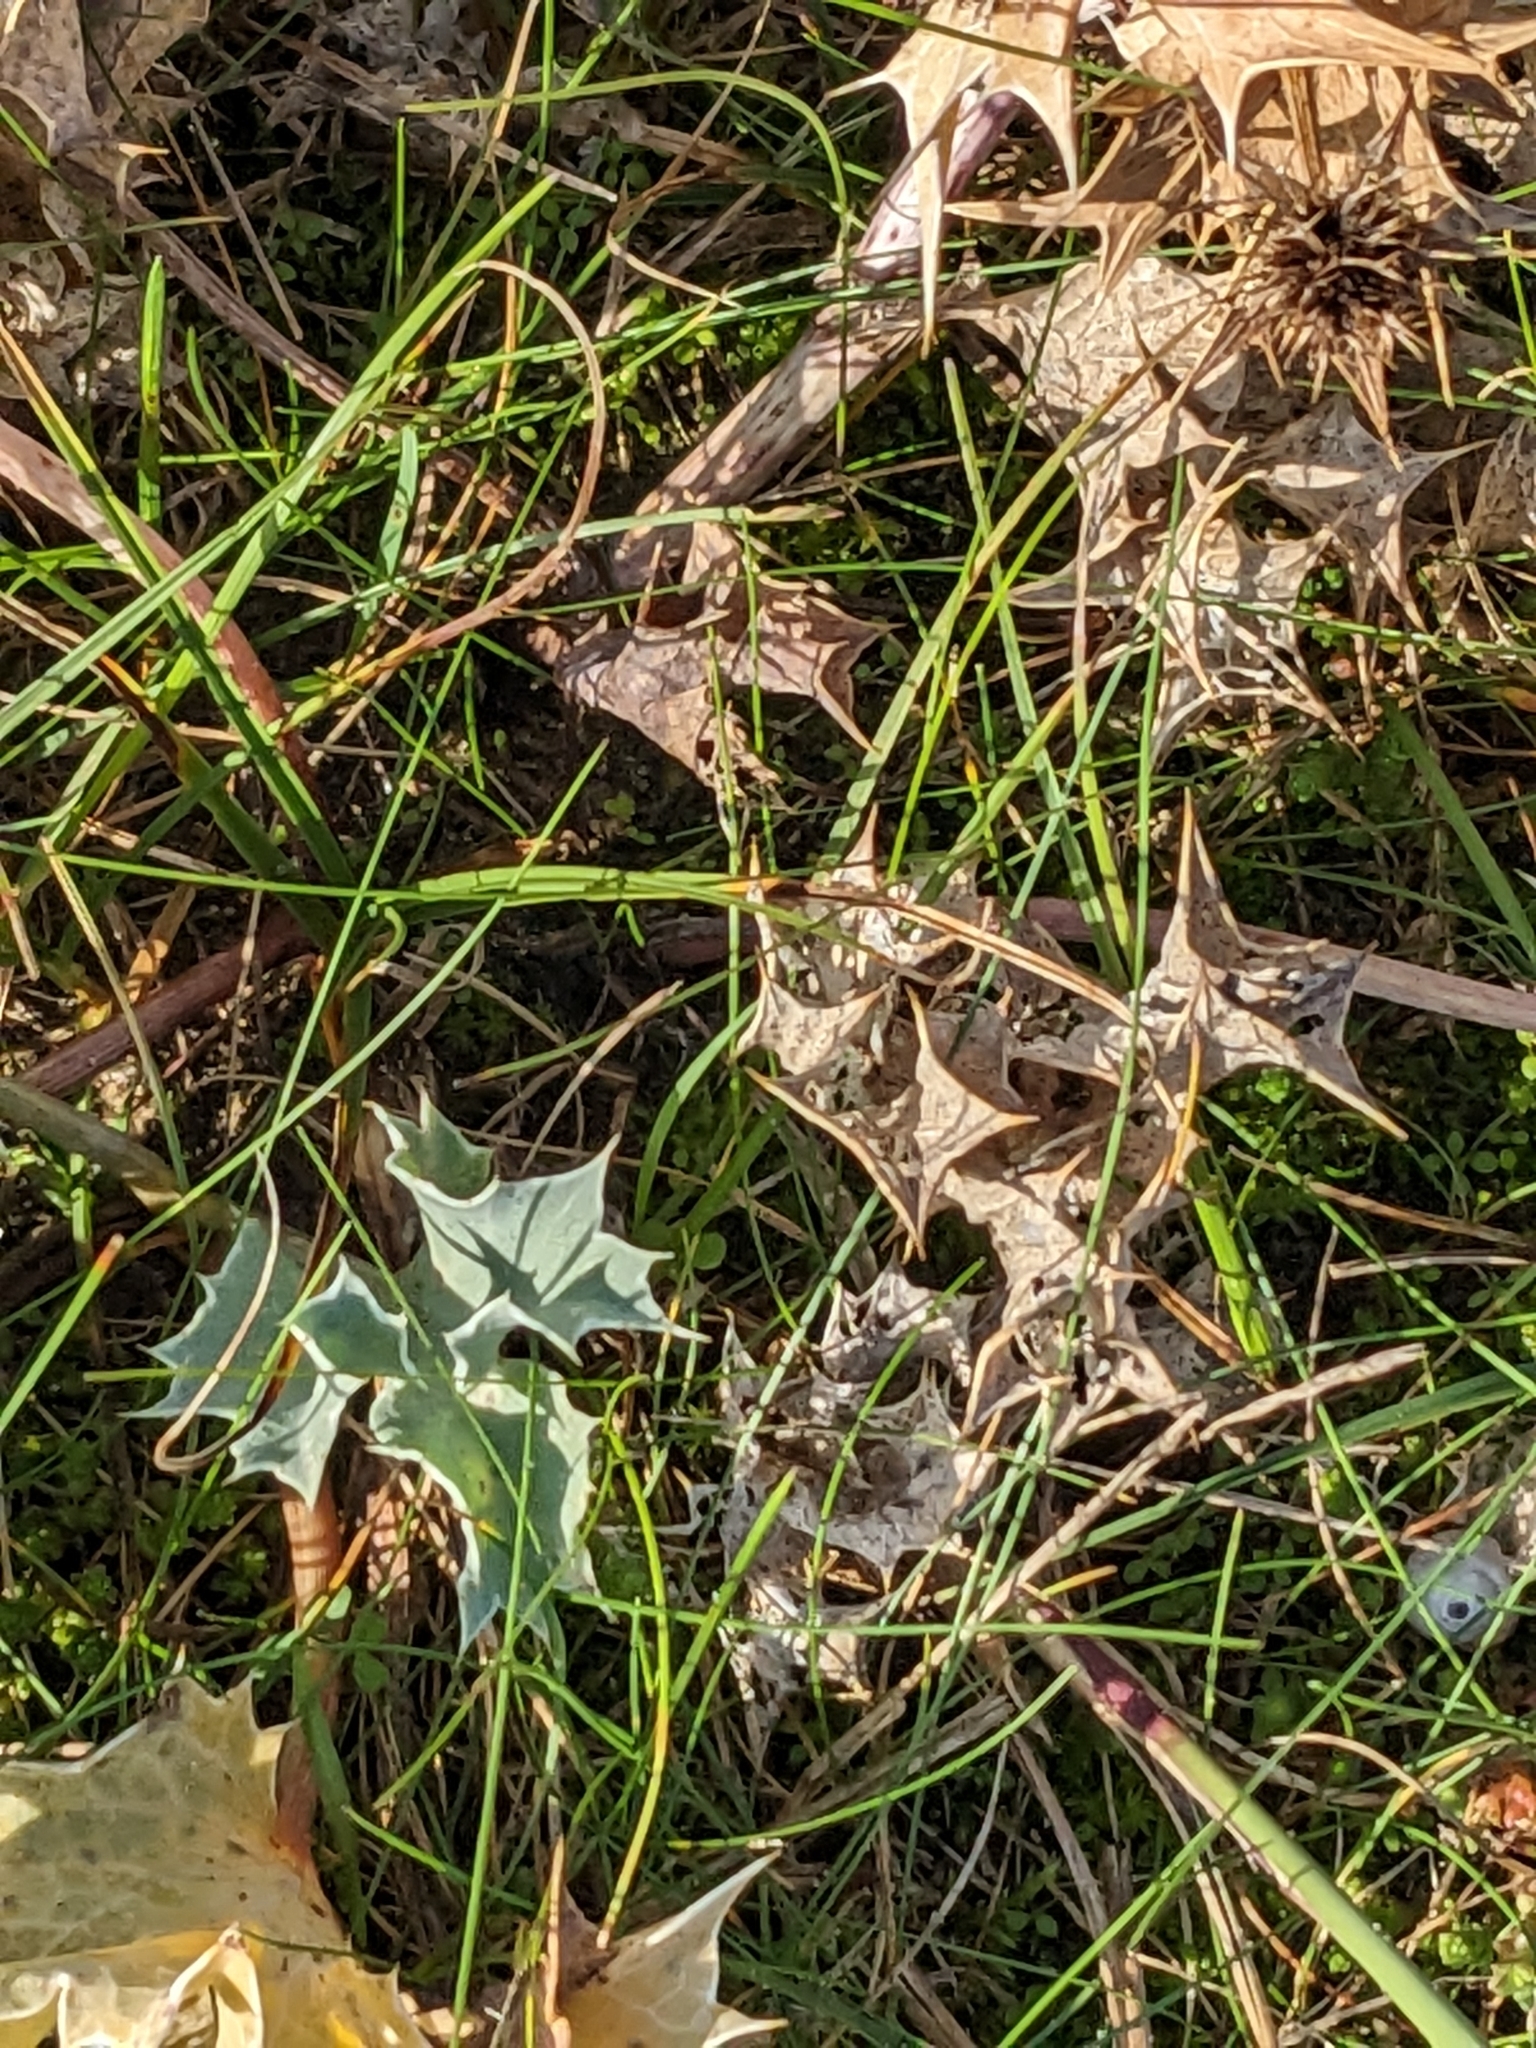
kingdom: Plantae
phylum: Tracheophyta
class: Magnoliopsida
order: Apiales
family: Apiaceae
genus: Eryngium
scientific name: Eryngium maritimum
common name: Sea-holly
